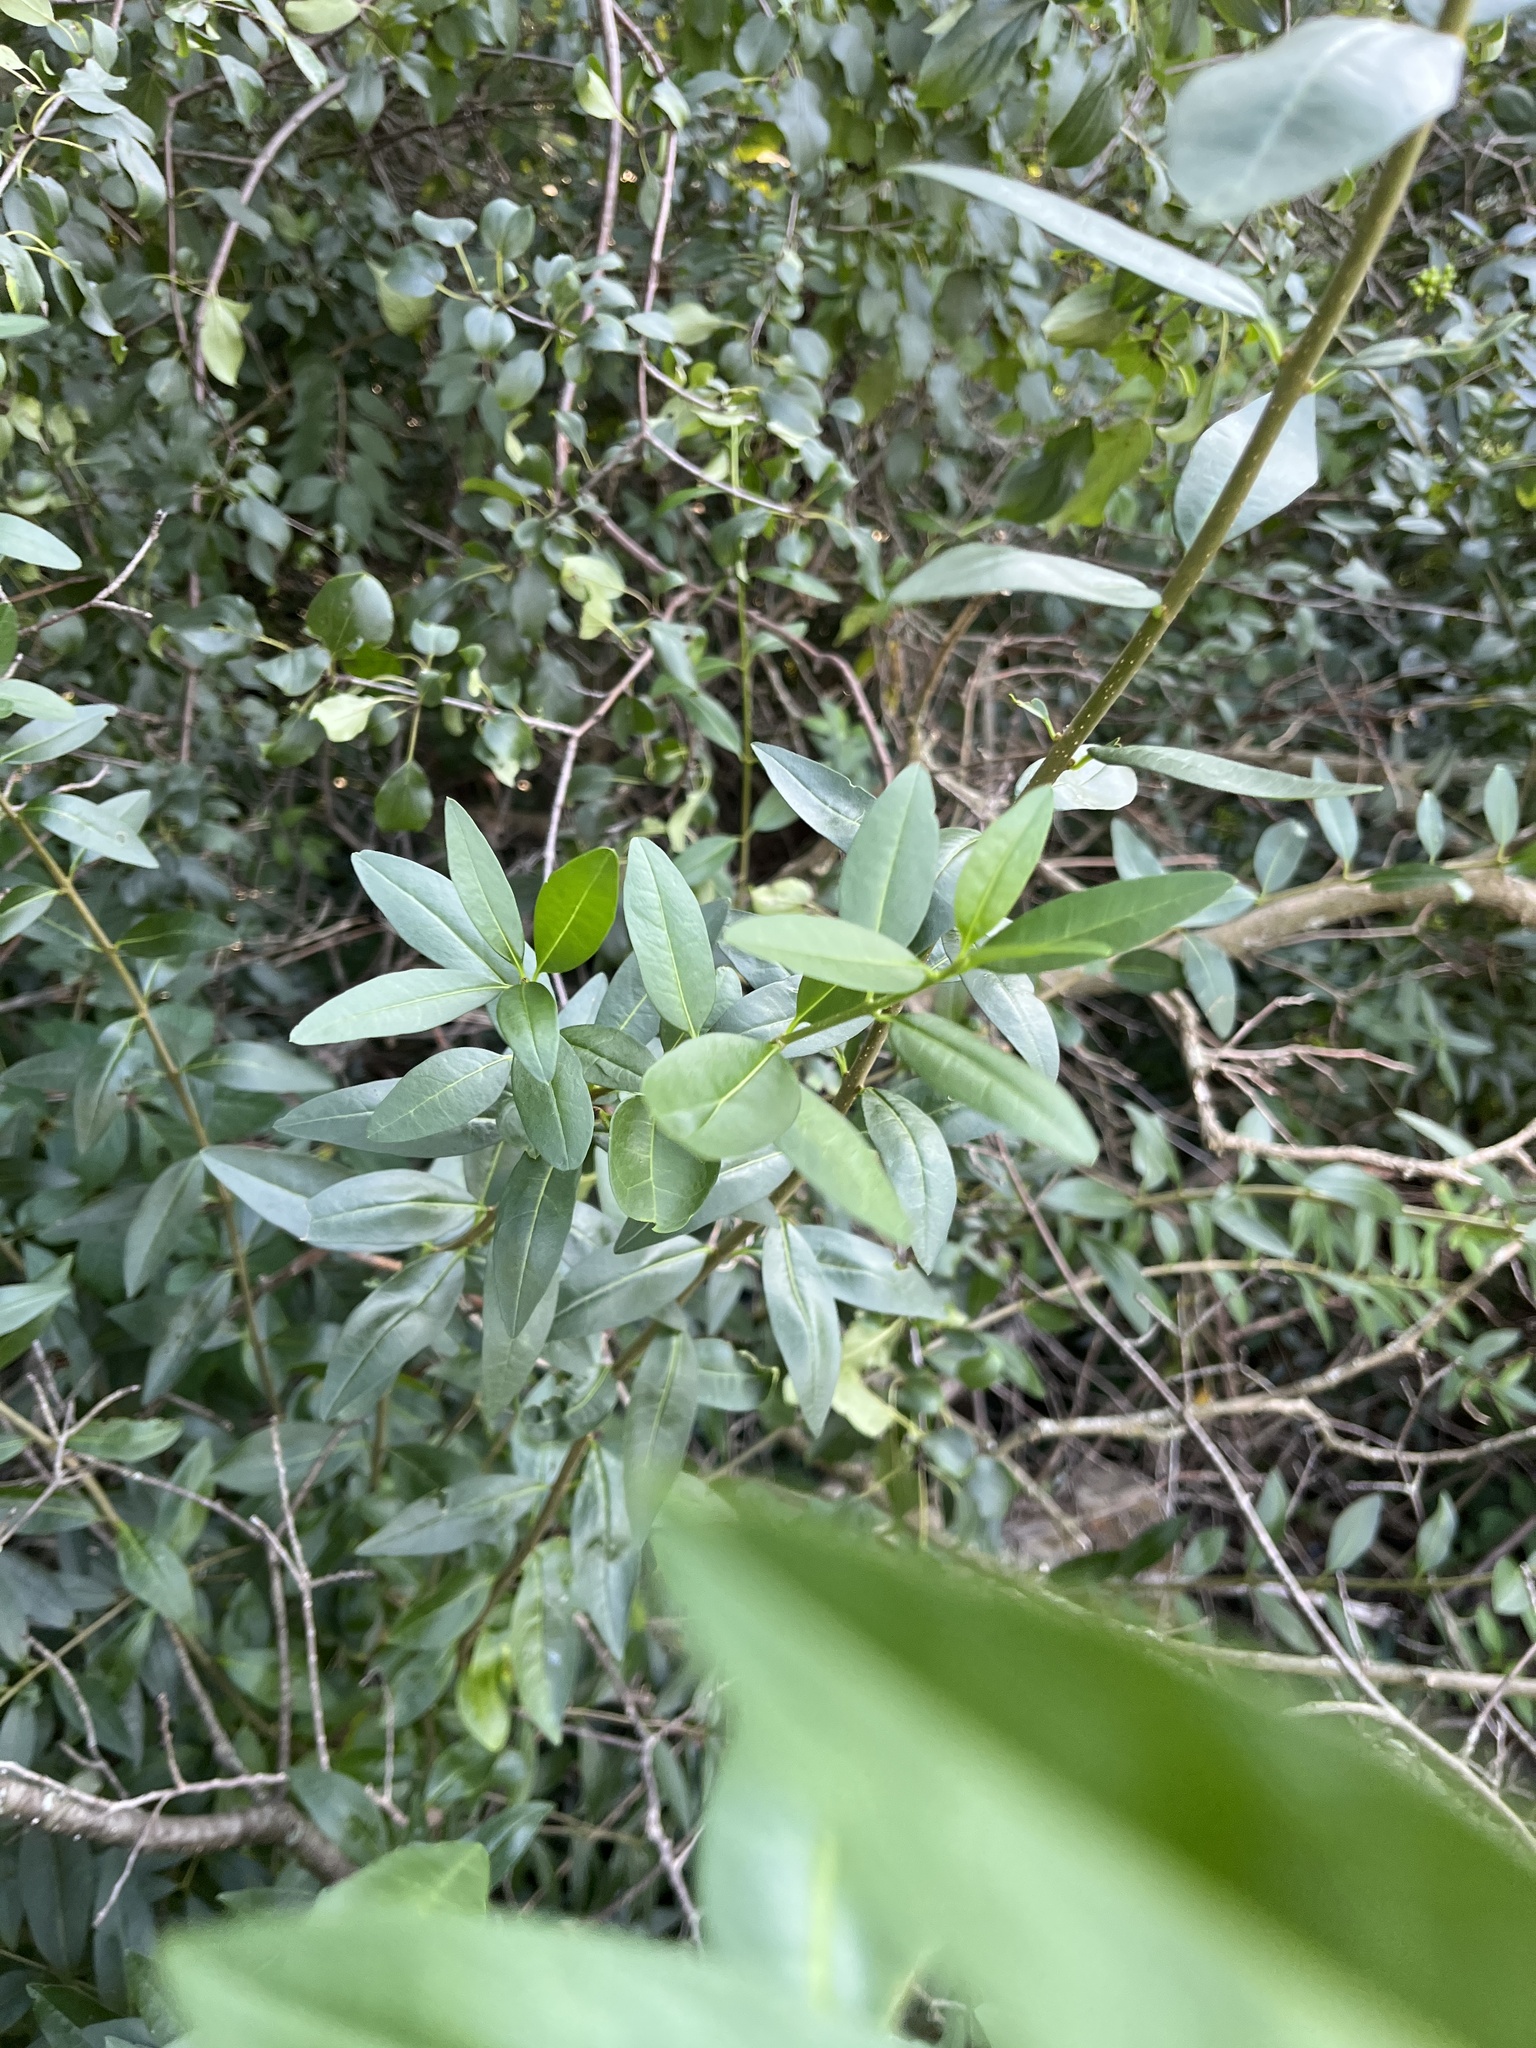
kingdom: Plantae
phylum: Tracheophyta
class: Magnoliopsida
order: Lamiales
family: Oleaceae
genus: Ligustrum
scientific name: Ligustrum vulgare
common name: Wild privet
